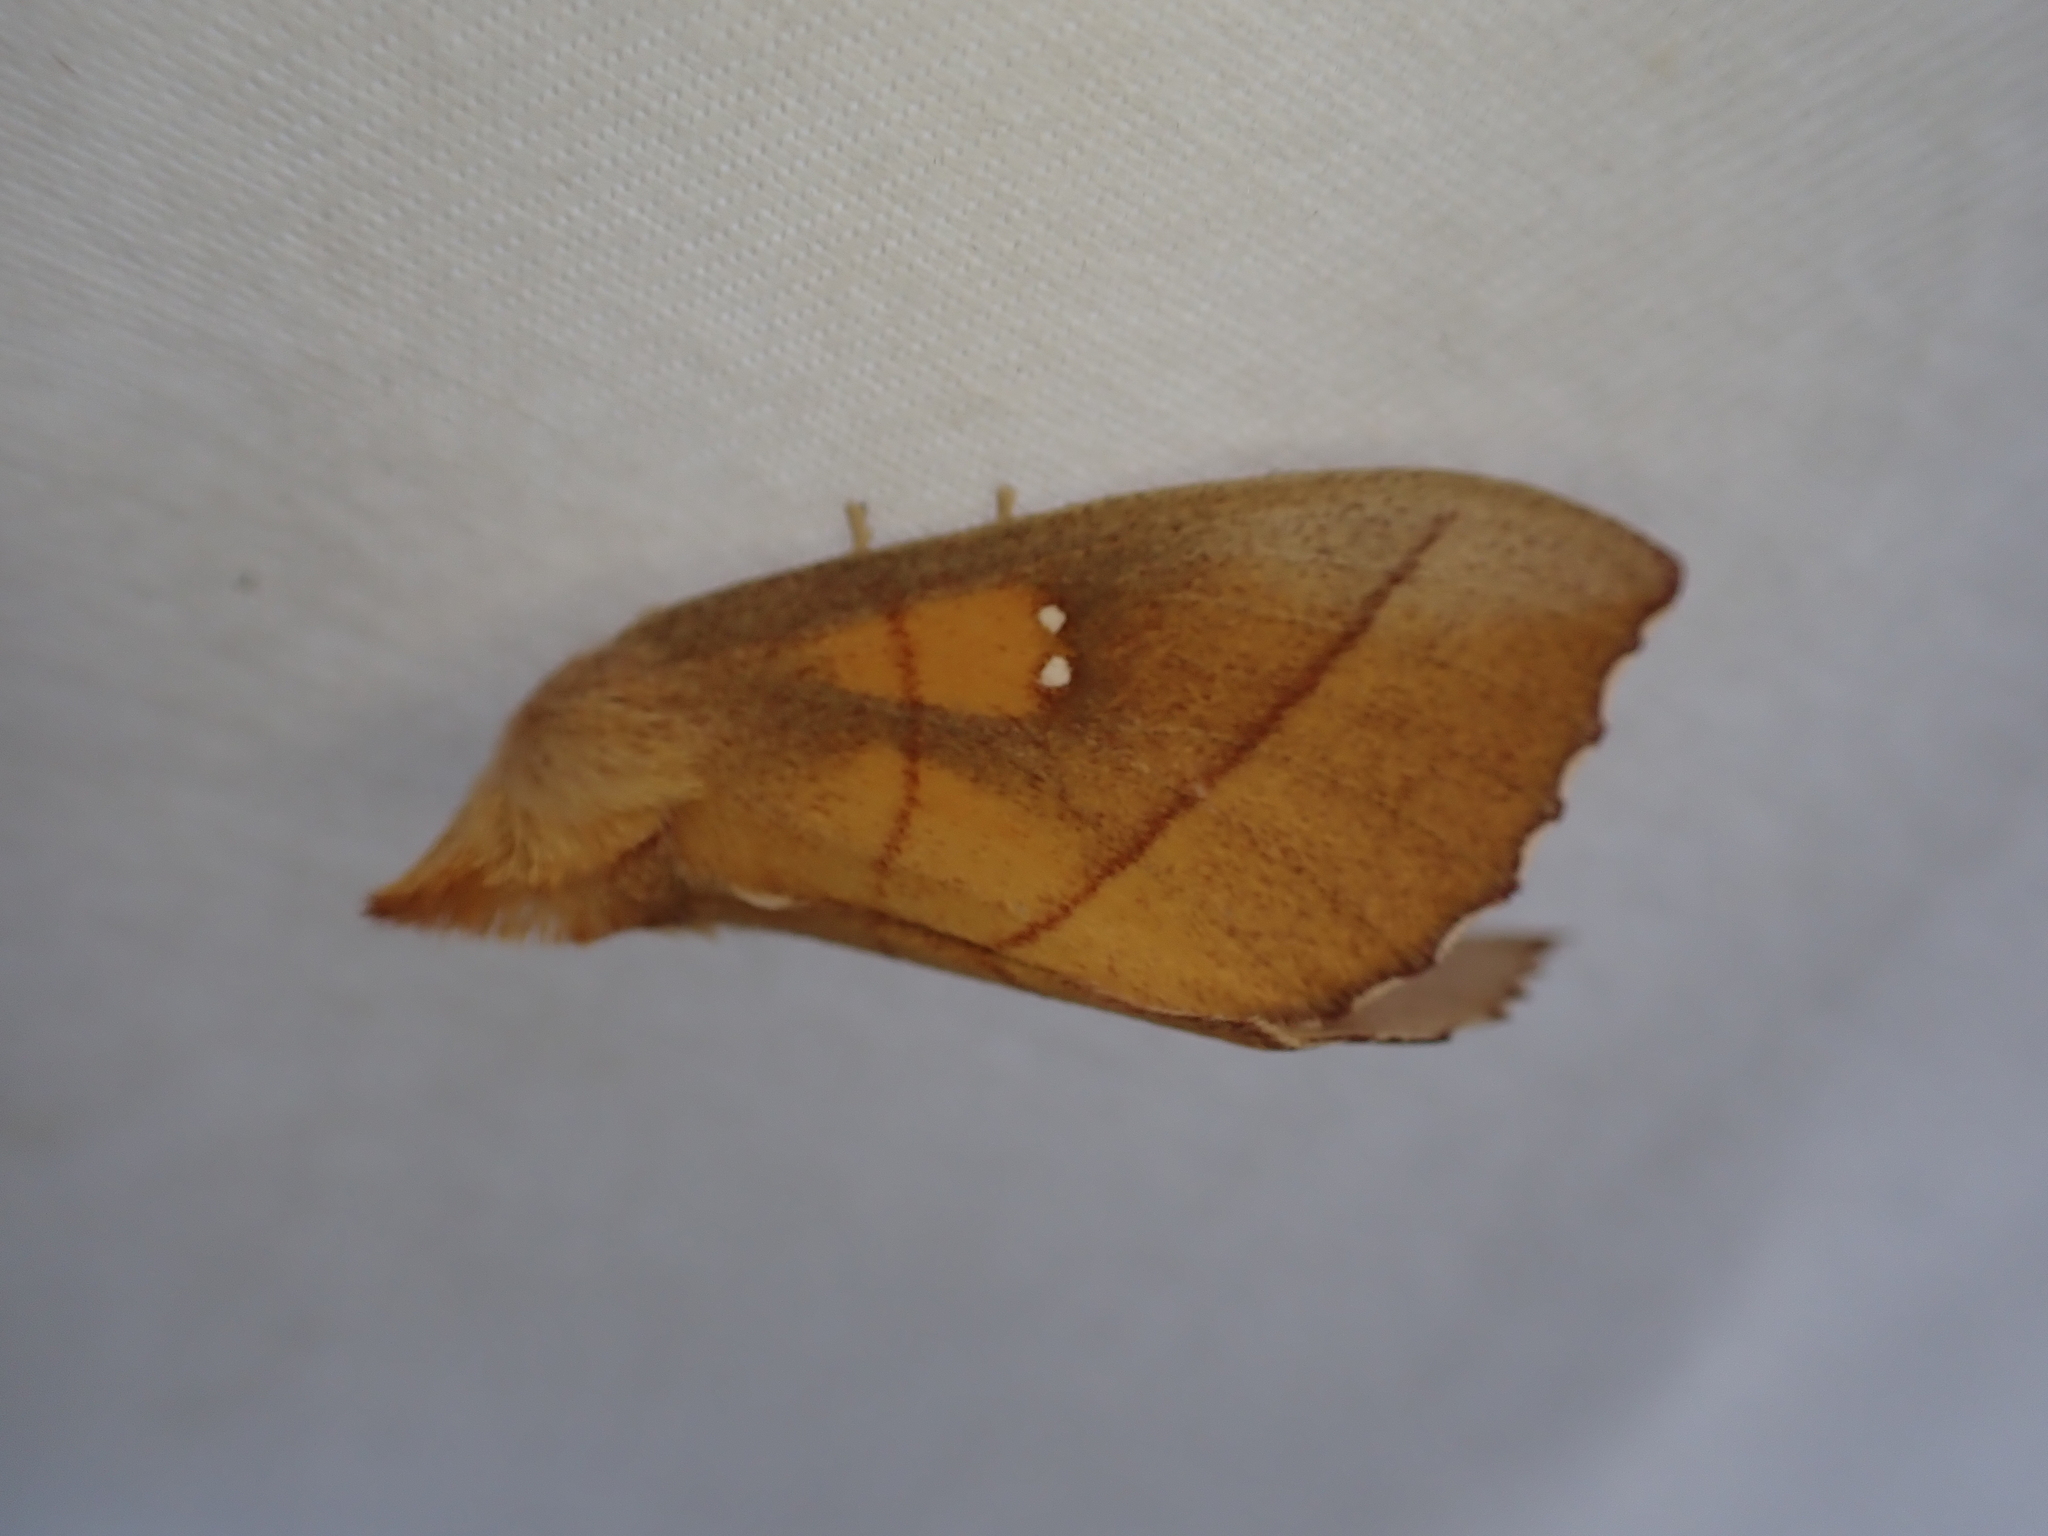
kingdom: Animalia
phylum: Arthropoda
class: Insecta
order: Lepidoptera
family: Notodontidae
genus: Nadata
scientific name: Nadata gibbosa
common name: White-dotted prominent
